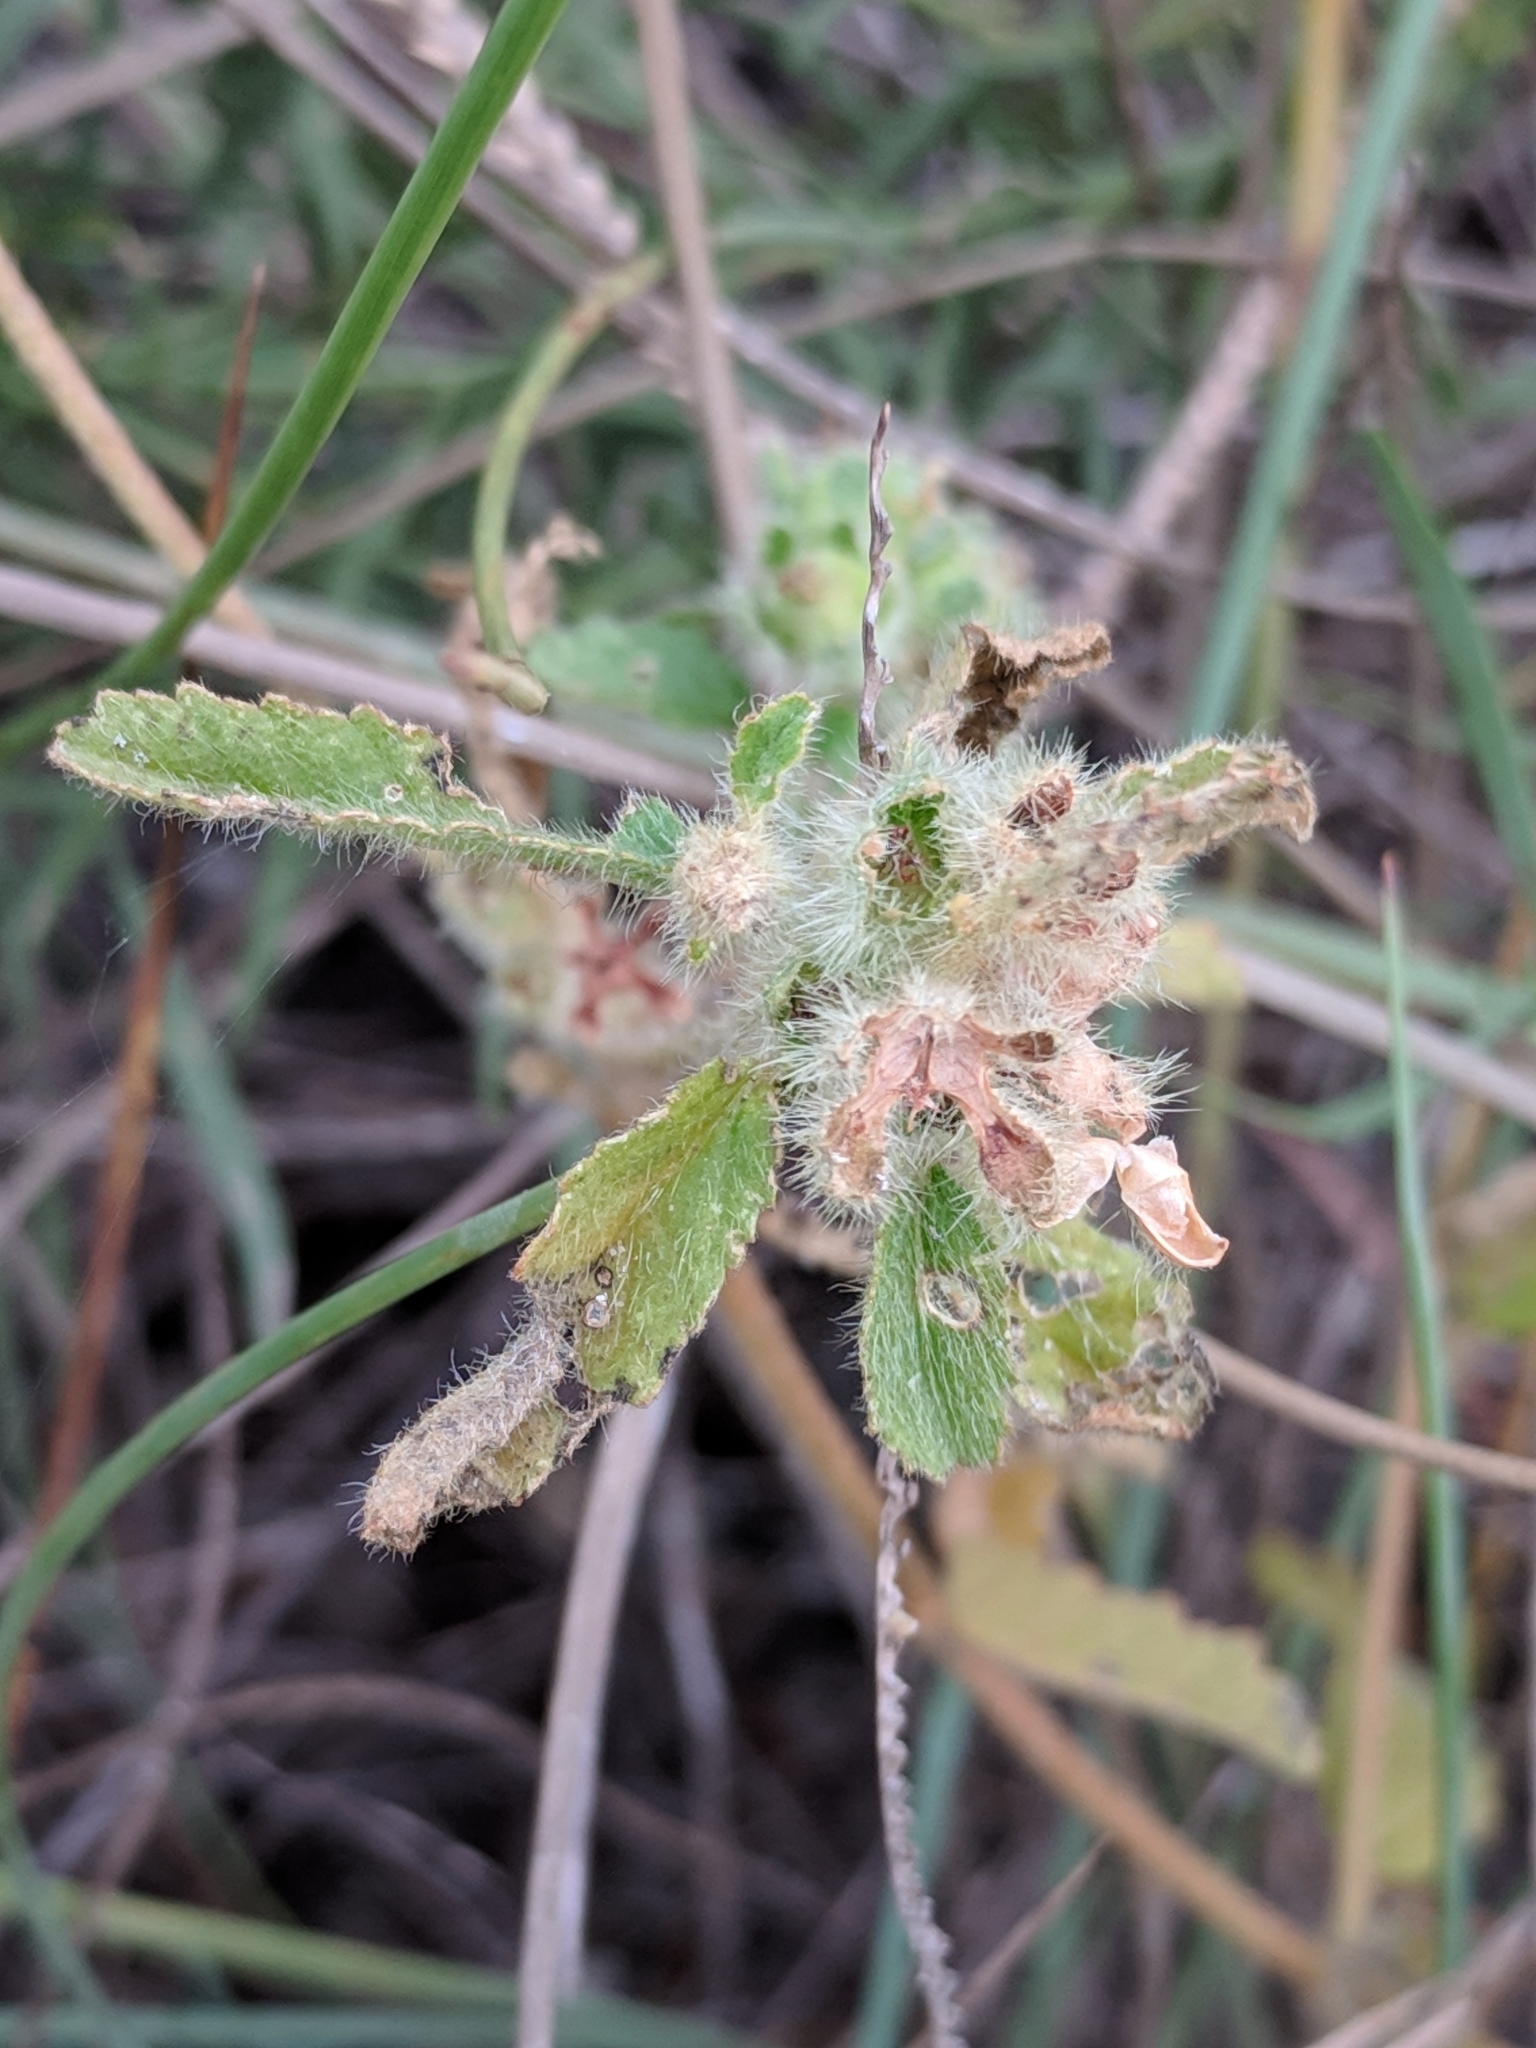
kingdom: Plantae
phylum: Tracheophyta
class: Magnoliopsida
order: Malpighiales
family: Euphorbiaceae
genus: Croton
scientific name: Croton glandulosus
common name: Tropic croton
